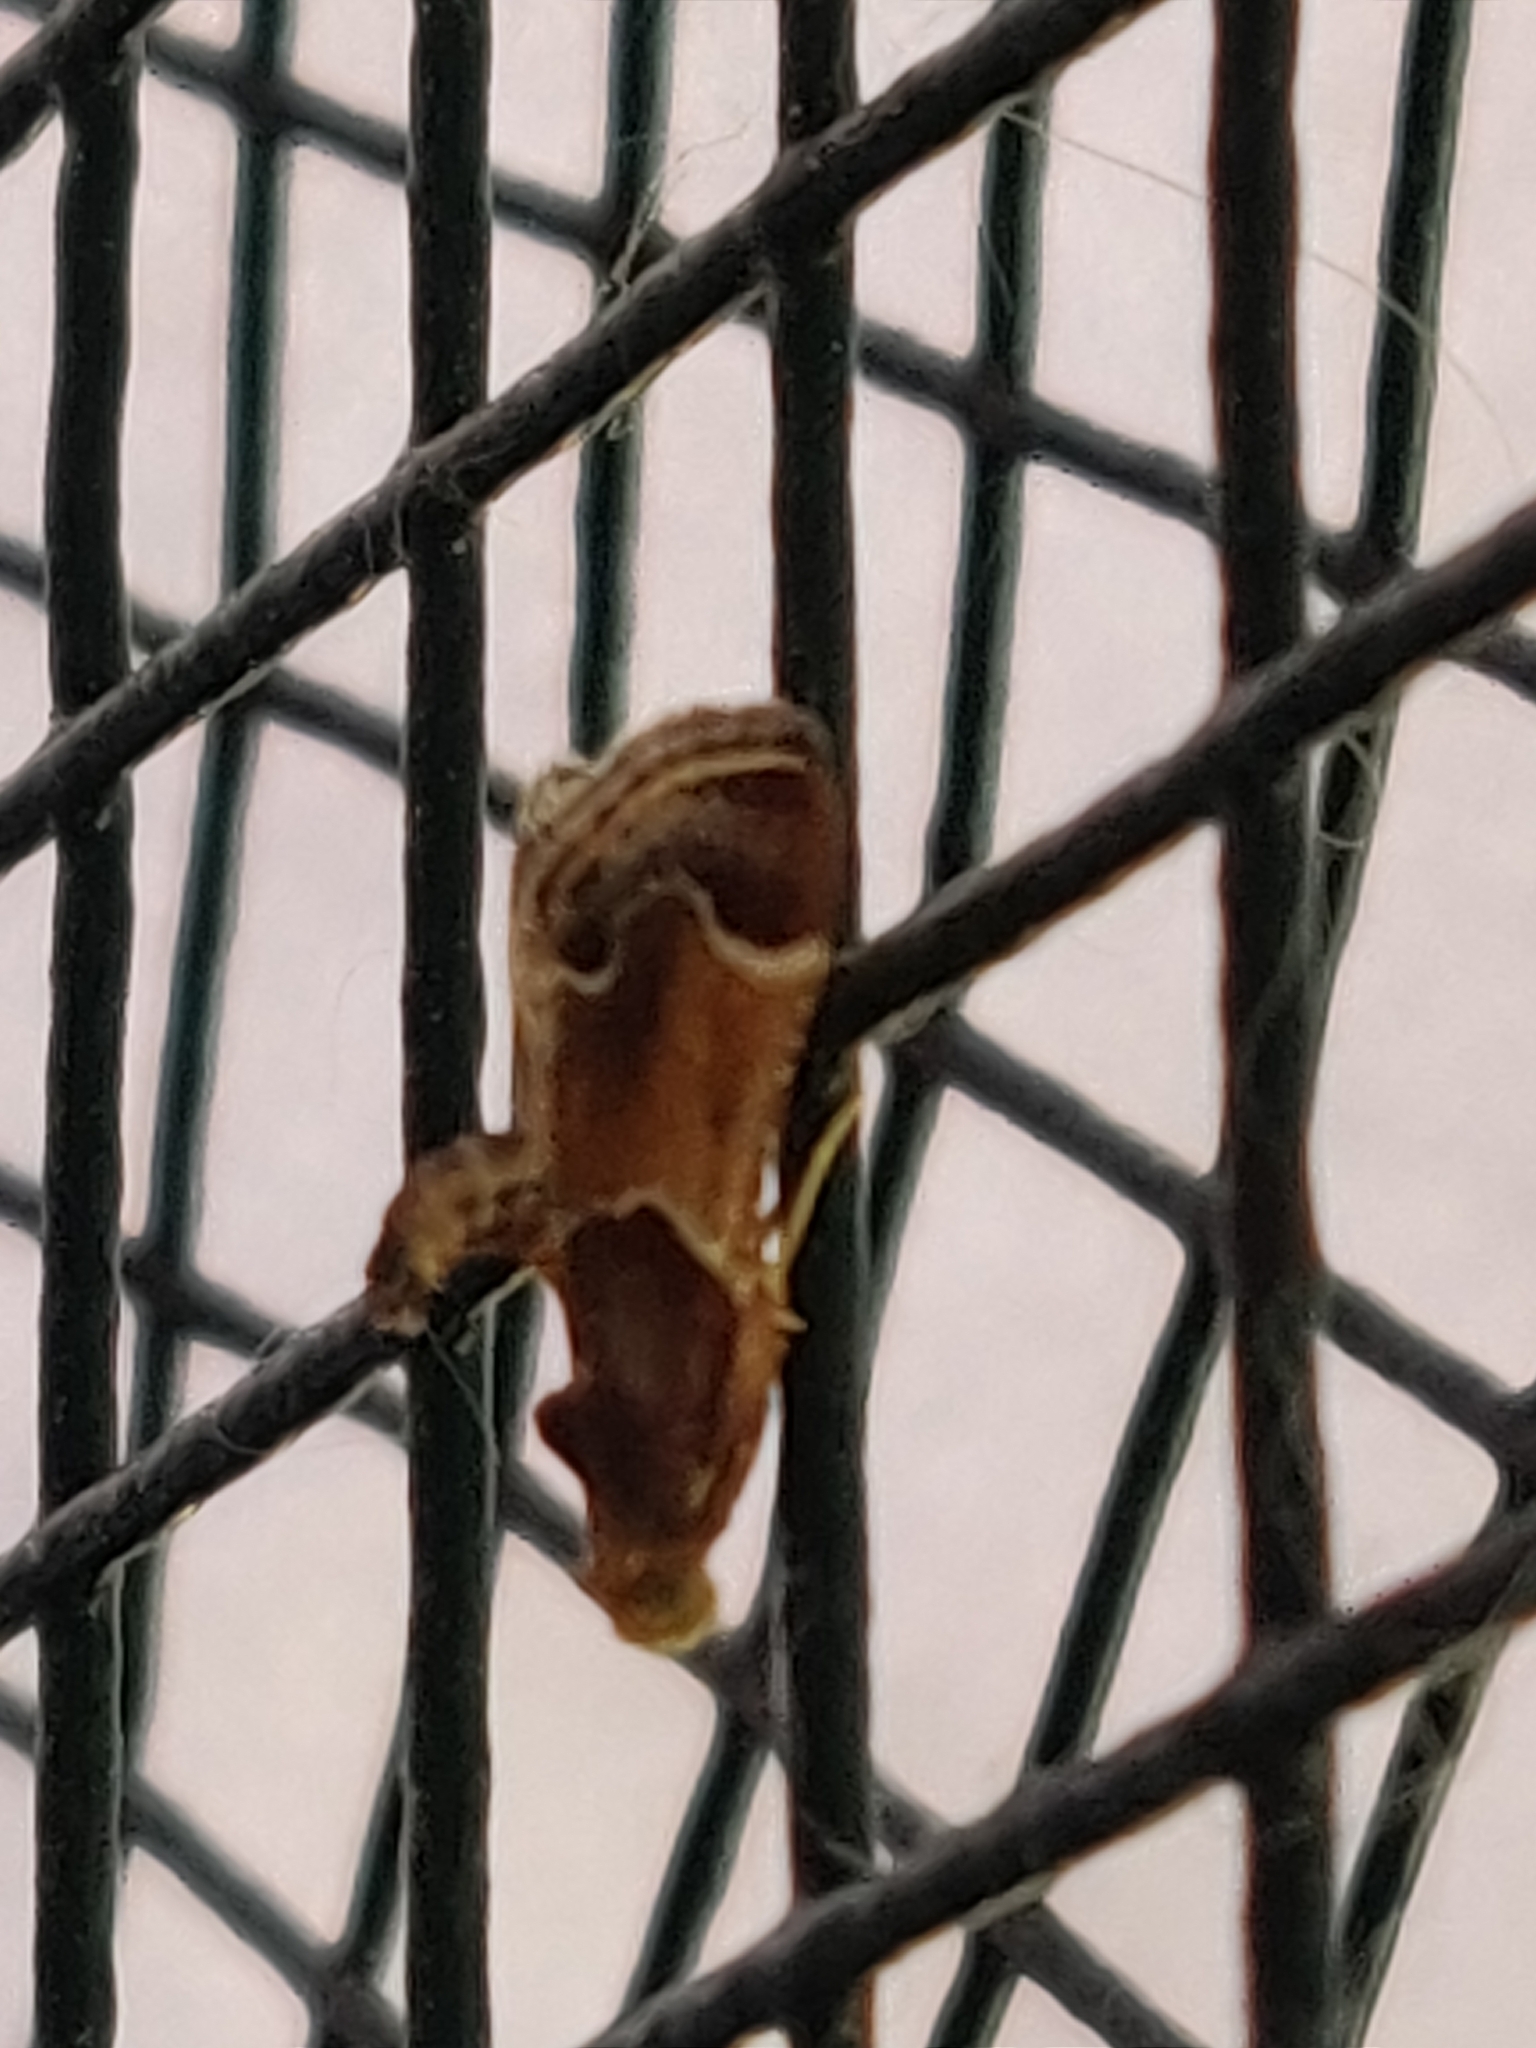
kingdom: Animalia
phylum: Arthropoda
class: Insecta
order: Lepidoptera
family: Pyralidae
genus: Pyralis
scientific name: Pyralis farinalis
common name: Meal moth
